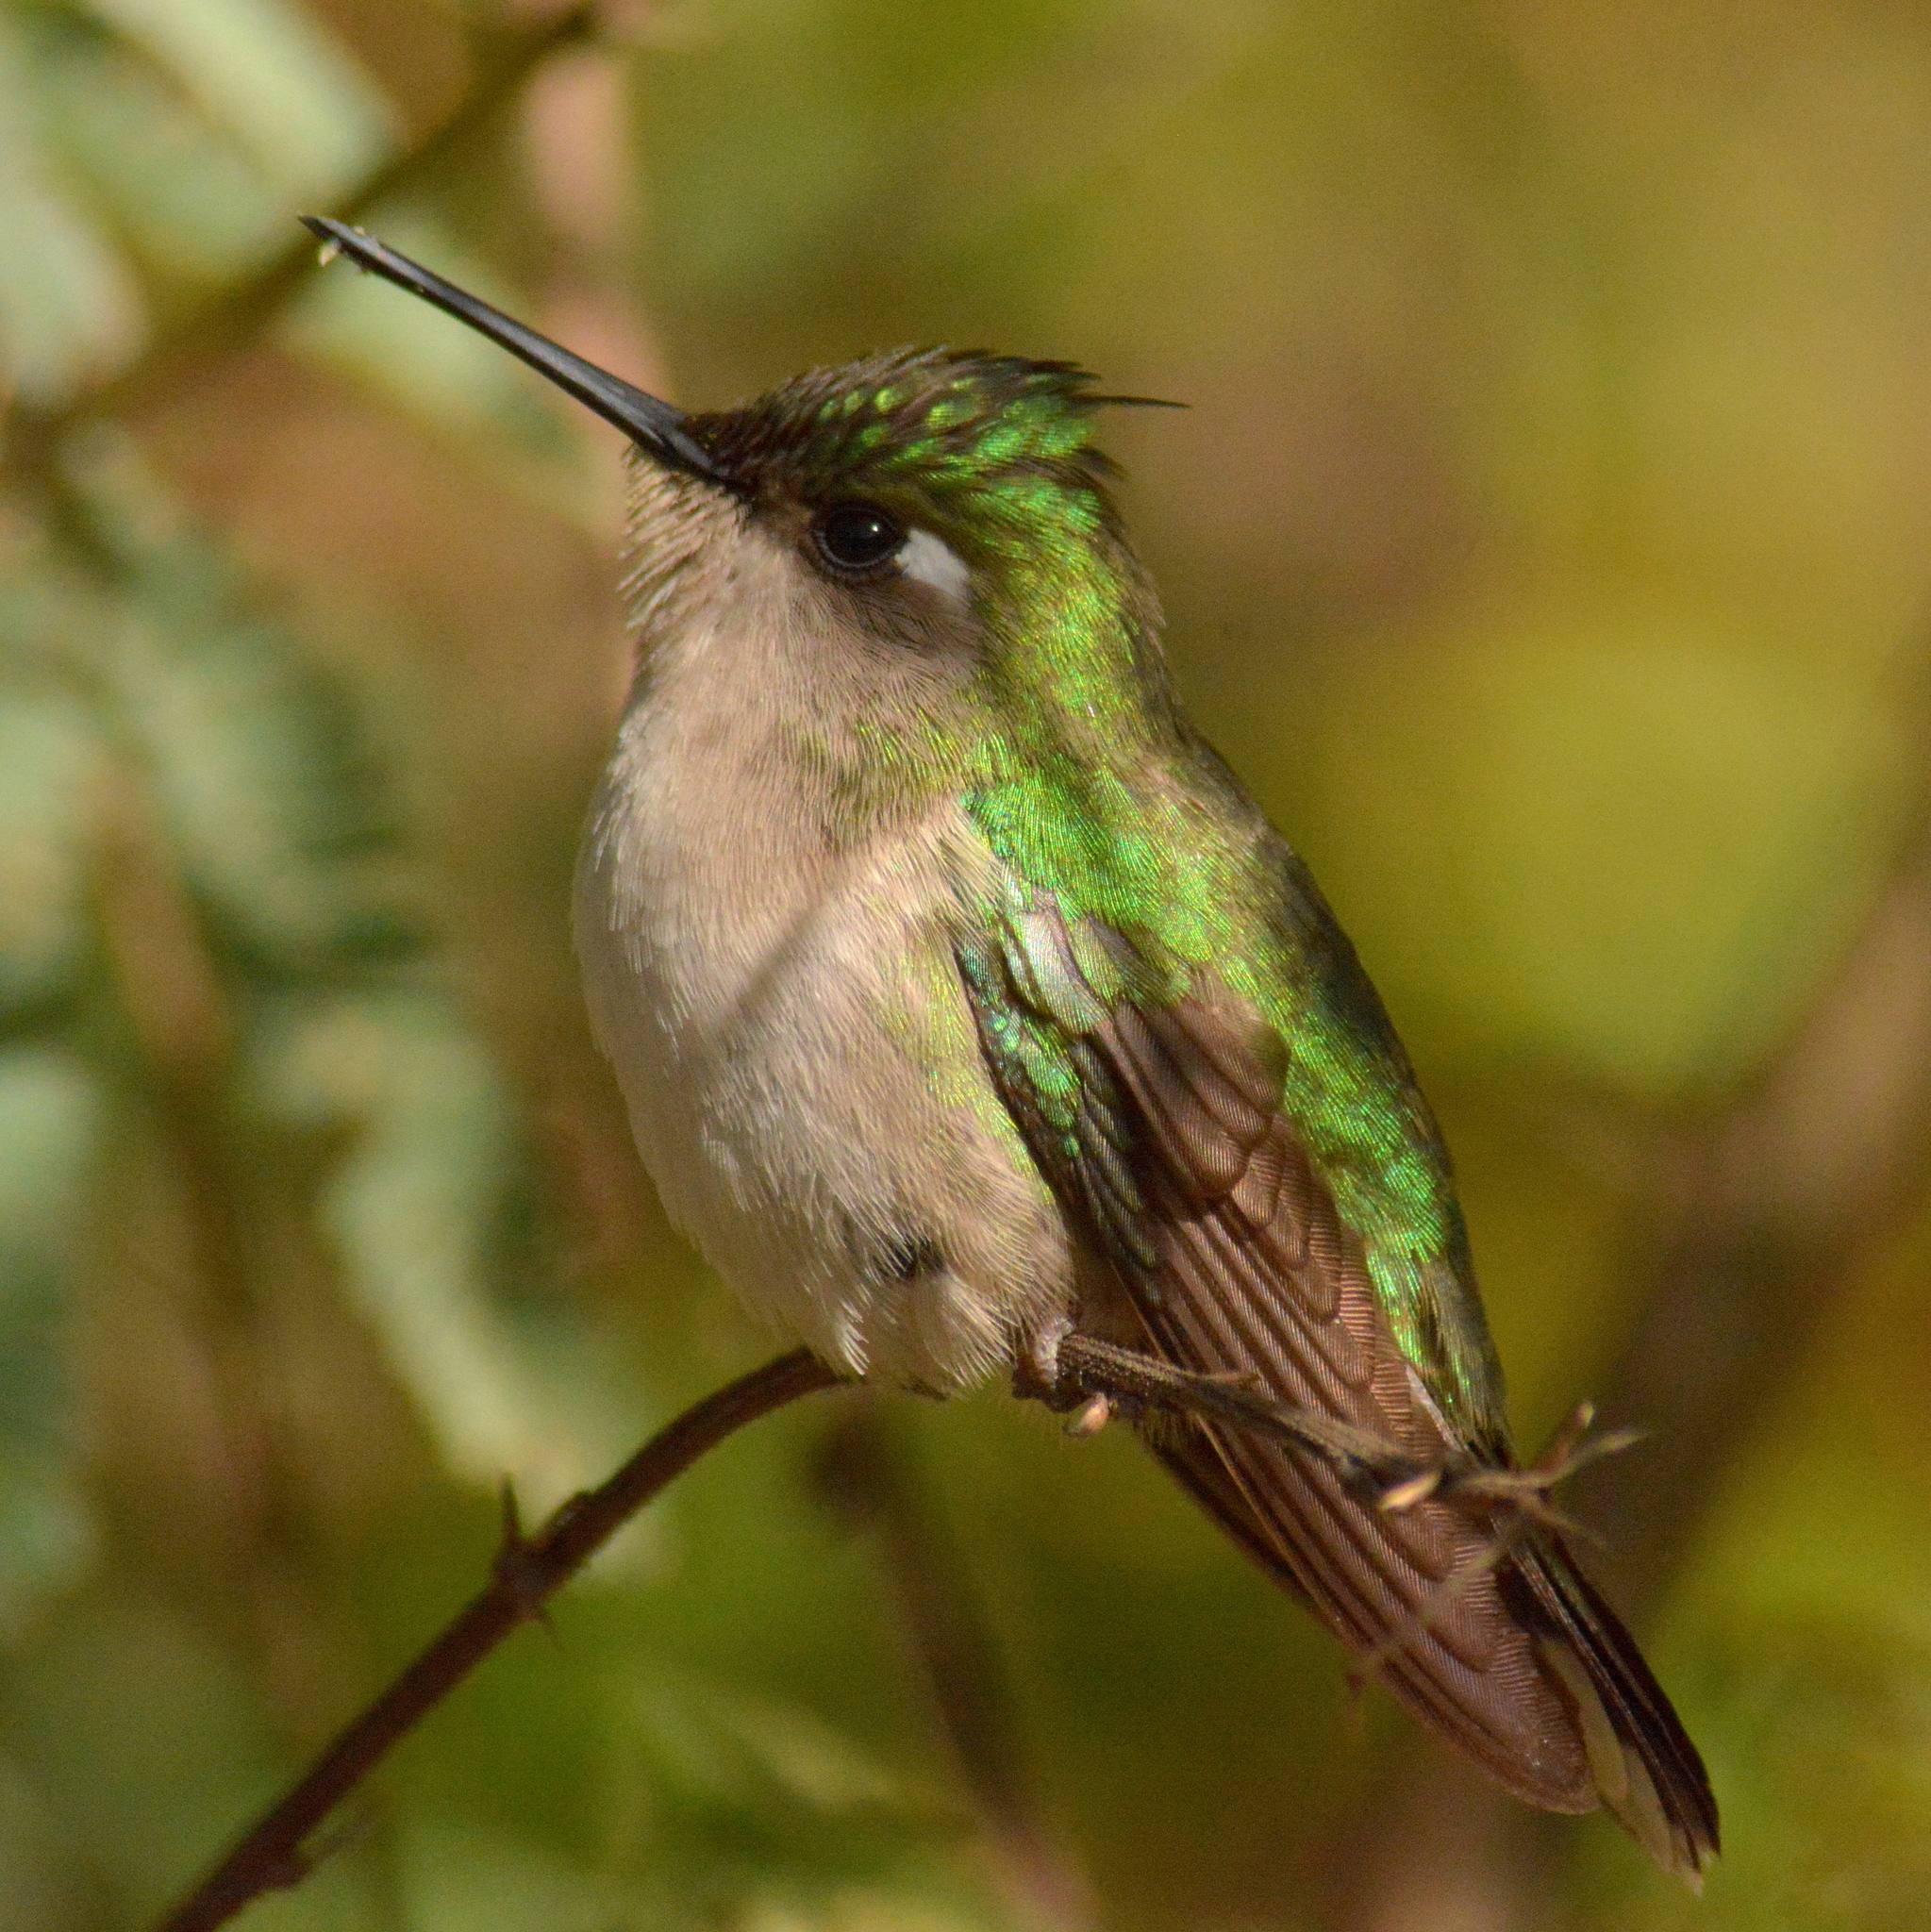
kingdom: Animalia
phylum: Chordata
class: Aves
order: Apodiformes
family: Trochilidae
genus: Stephanoxis
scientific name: Stephanoxis loddigesii
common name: Purple-crowned plovercrest
